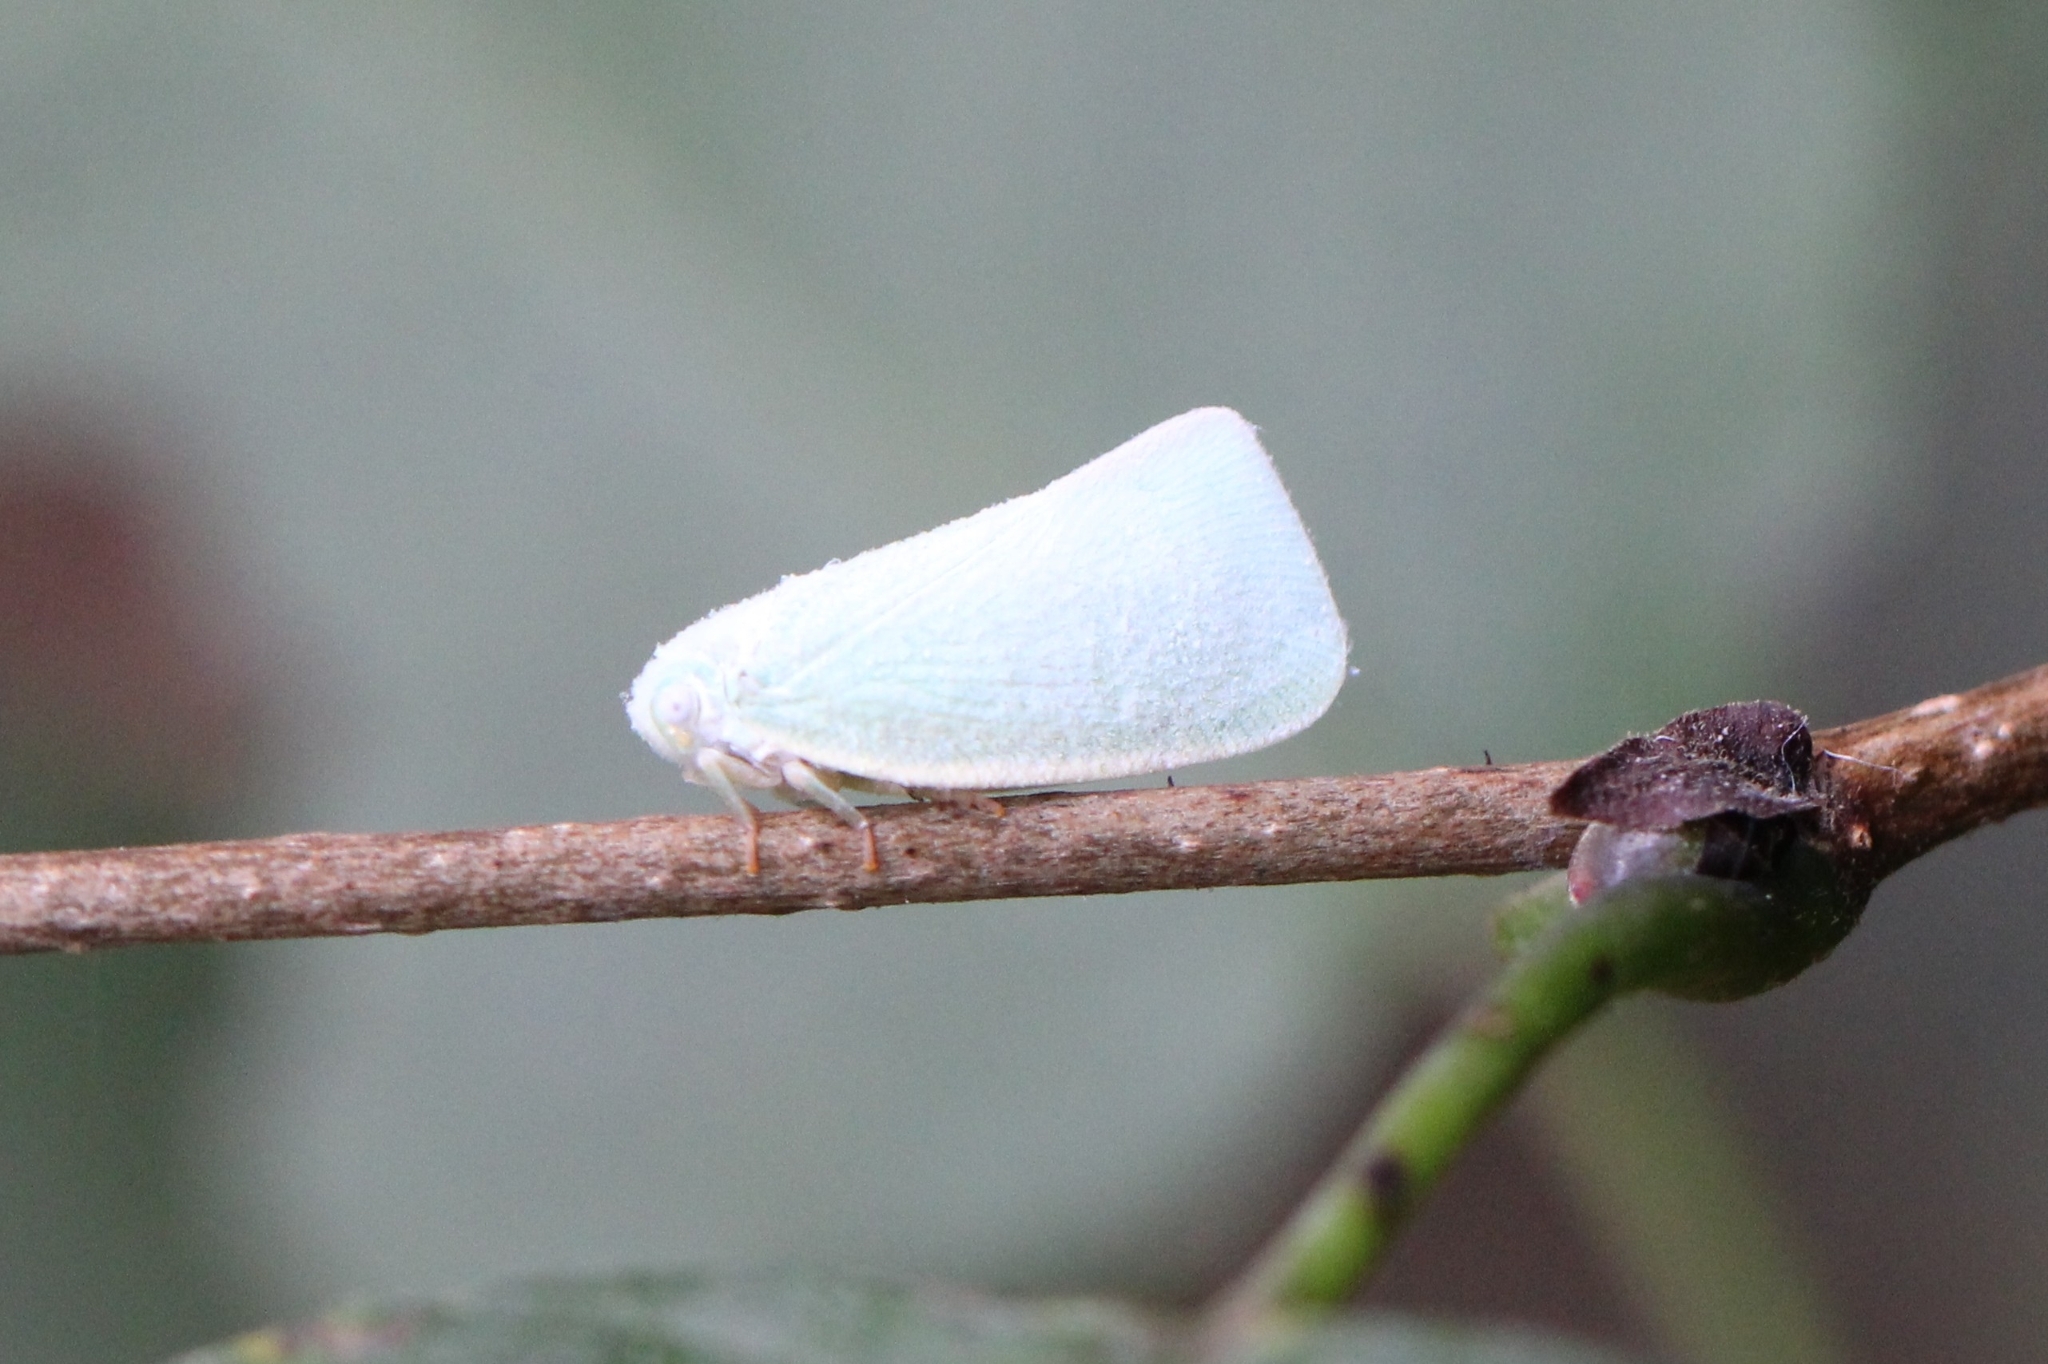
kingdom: Animalia
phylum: Arthropoda
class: Insecta
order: Hemiptera
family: Flatidae
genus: Flatormenis
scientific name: Flatormenis proxima
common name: Northern flatid planthopper
